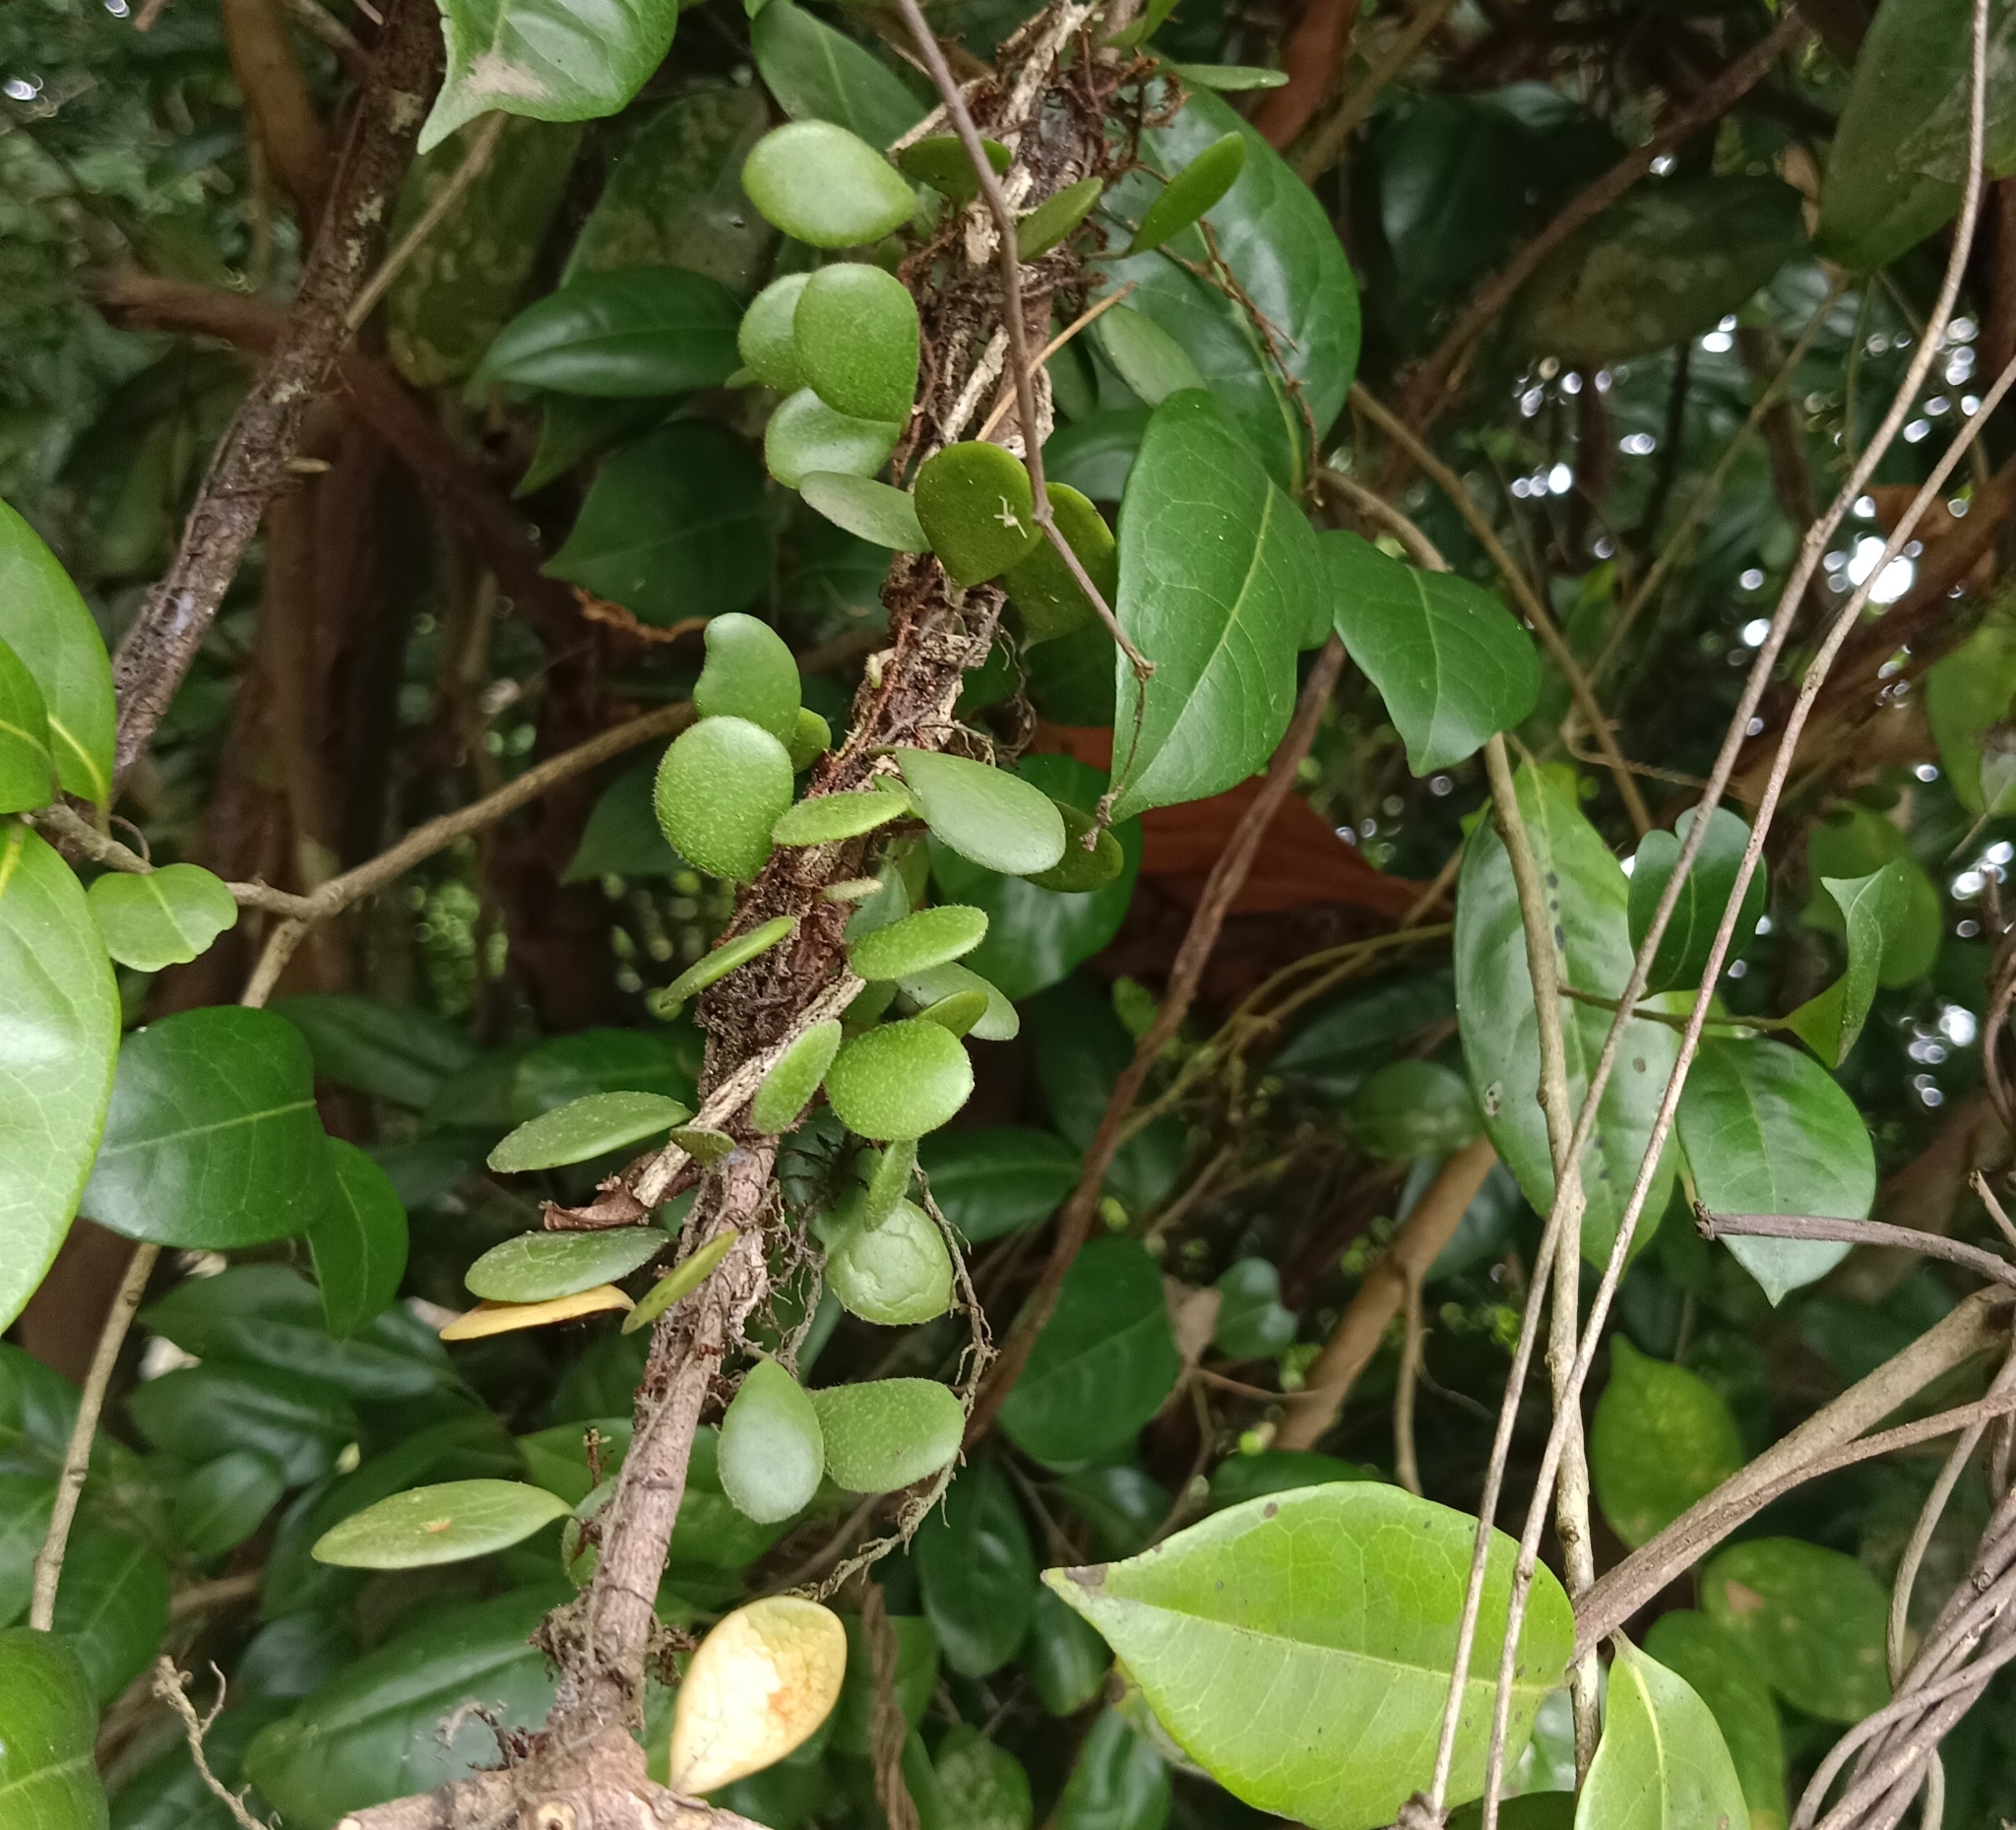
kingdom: Plantae
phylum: Tracheophyta
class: Polypodiopsida
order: Polypodiales
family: Polypodiaceae
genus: Lepisorus
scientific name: Lepisorus microphyllus
